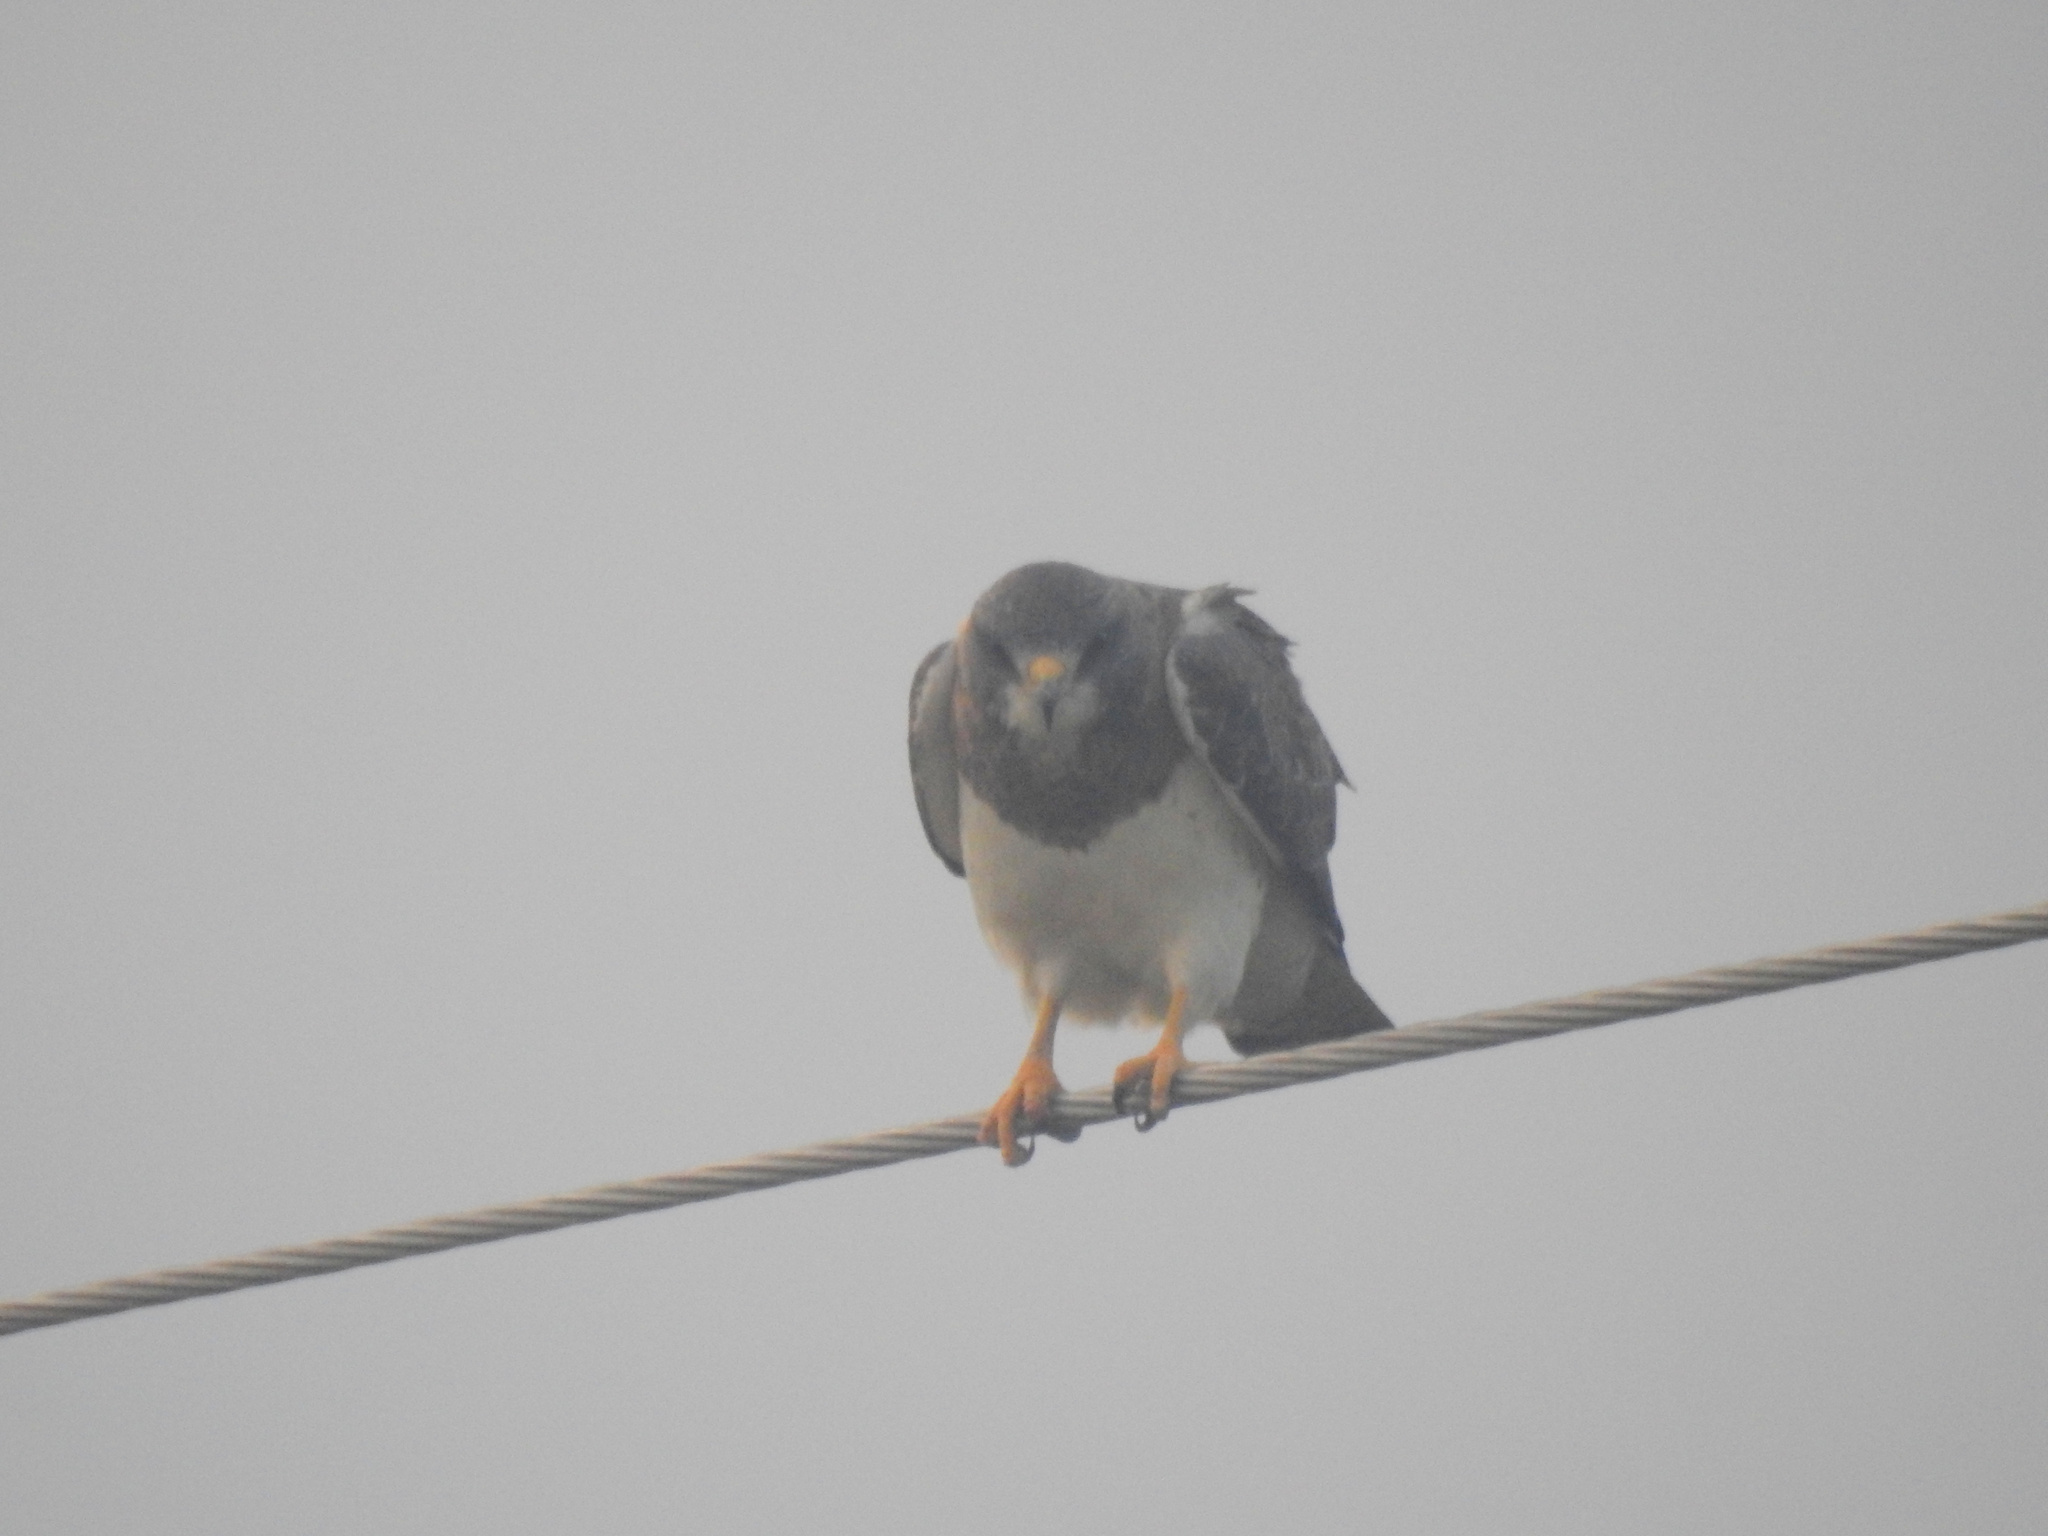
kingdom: Animalia
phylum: Chordata
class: Aves
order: Accipitriformes
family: Accipitridae
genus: Buteo
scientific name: Buteo swainsoni
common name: Swainson's hawk
